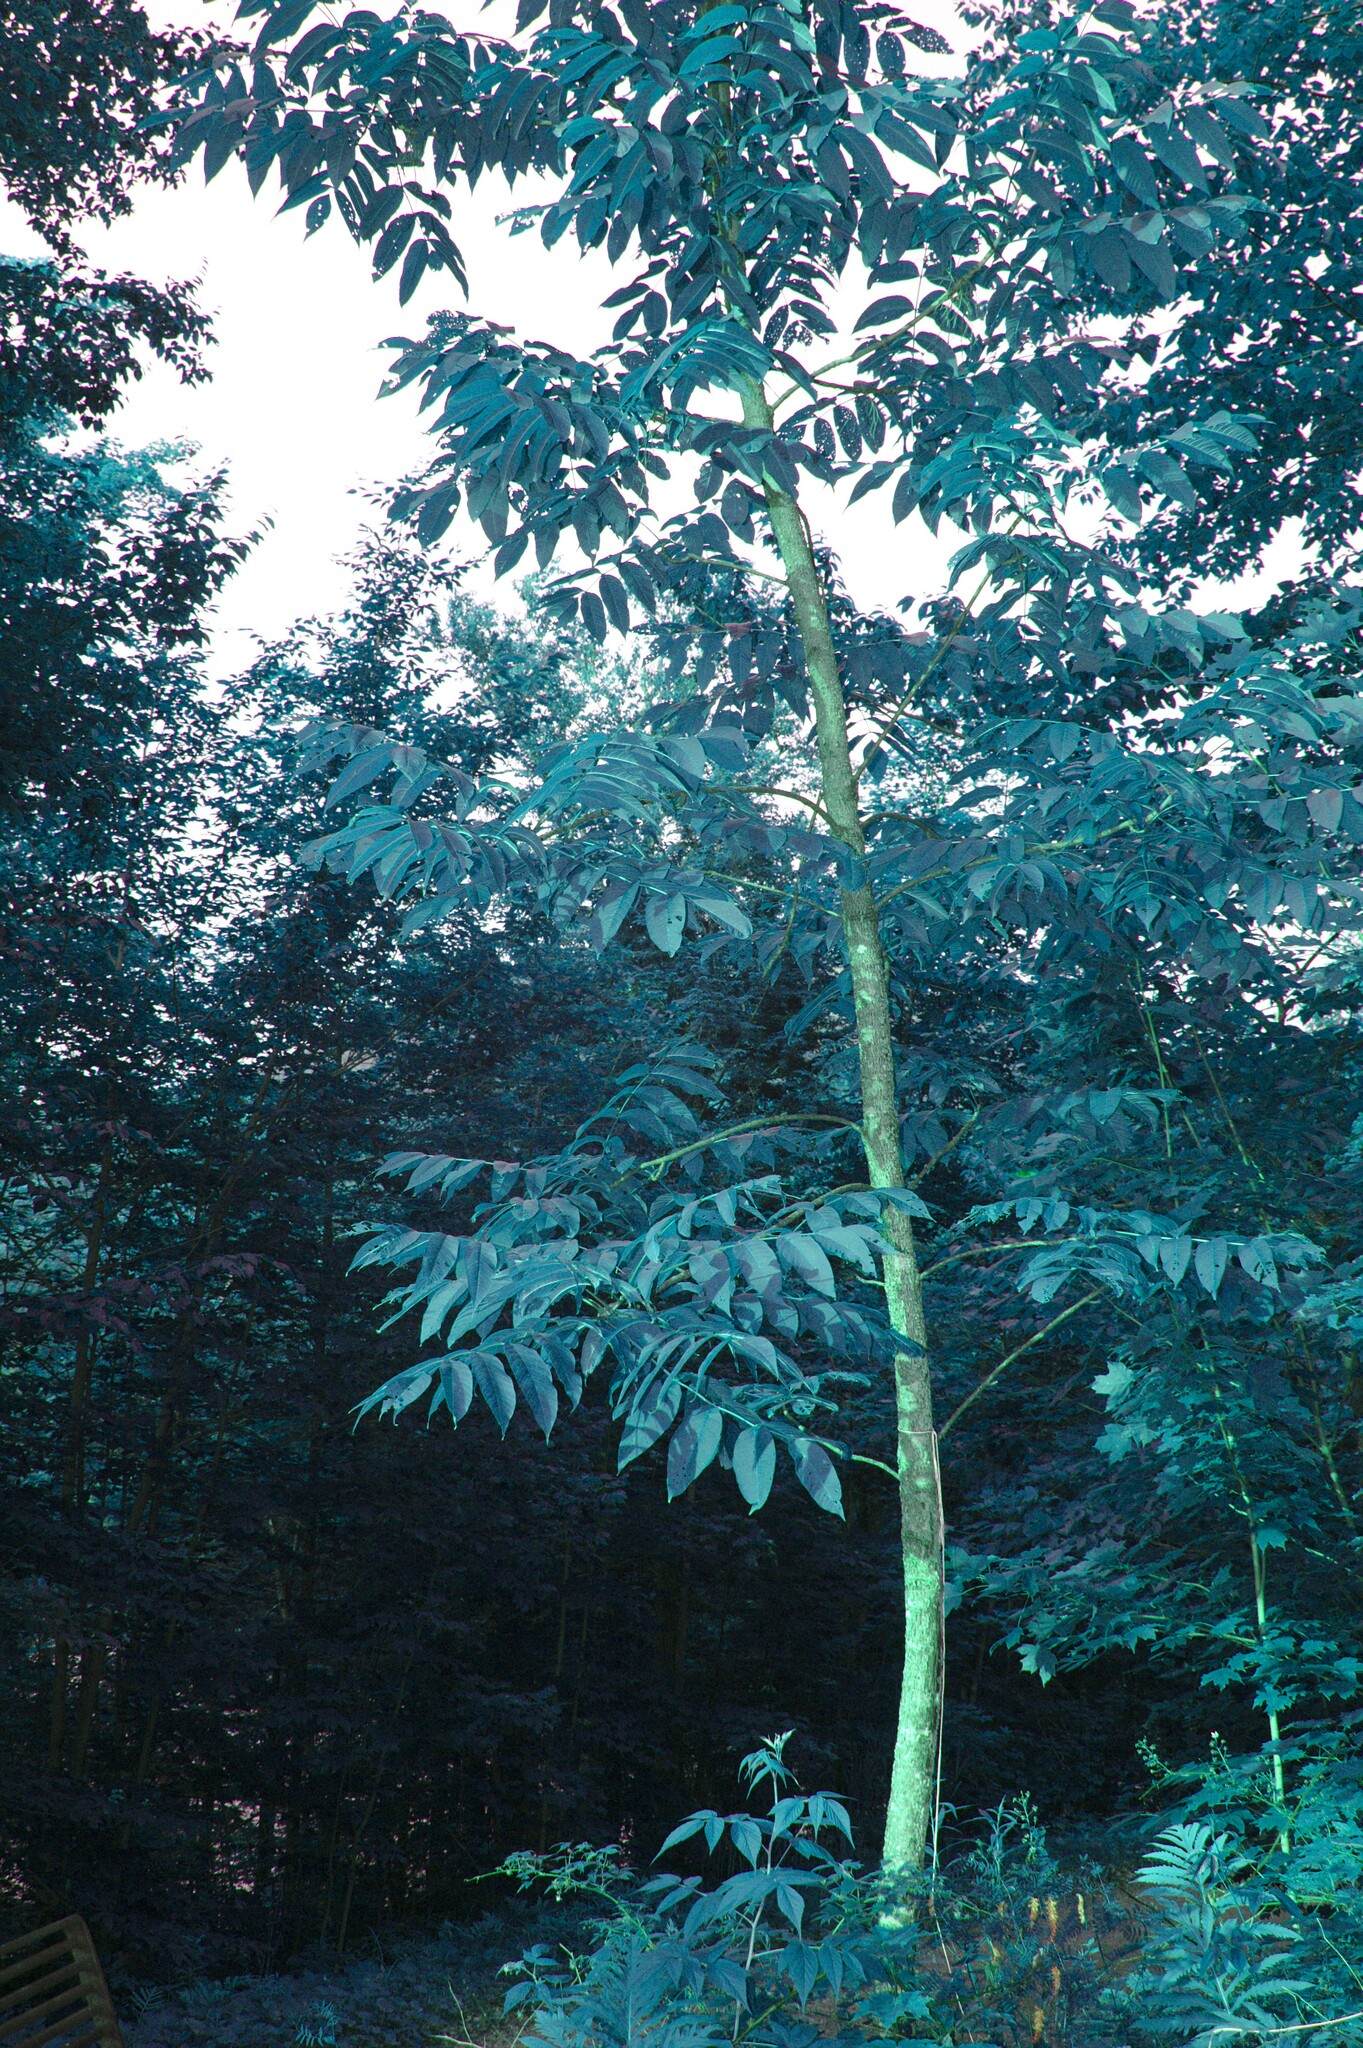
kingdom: Plantae
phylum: Tracheophyta
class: Magnoliopsida
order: Lamiales
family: Oleaceae
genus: Fraxinus
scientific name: Fraxinus nigra
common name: Black ash
